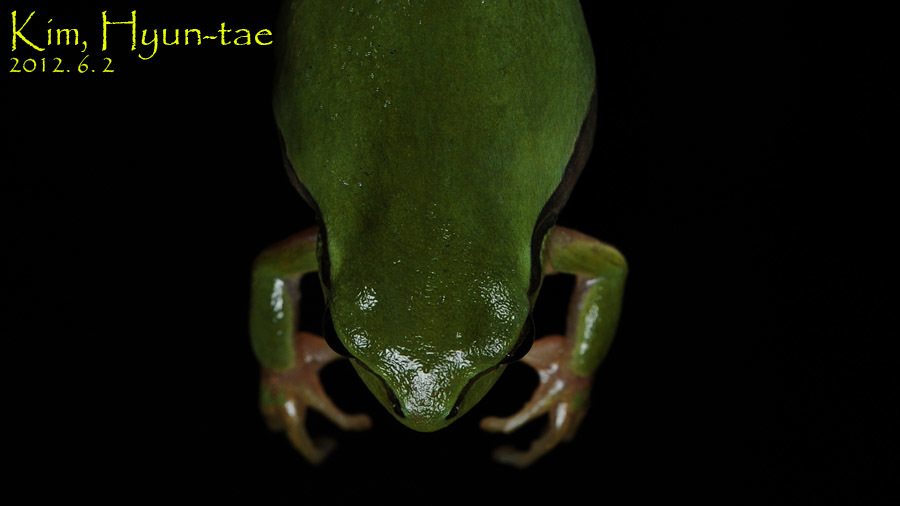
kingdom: Animalia
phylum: Chordata
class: Amphibia
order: Anura
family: Hylidae
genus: Dryophytes
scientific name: Dryophytes immaculatus
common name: North china treefrog
